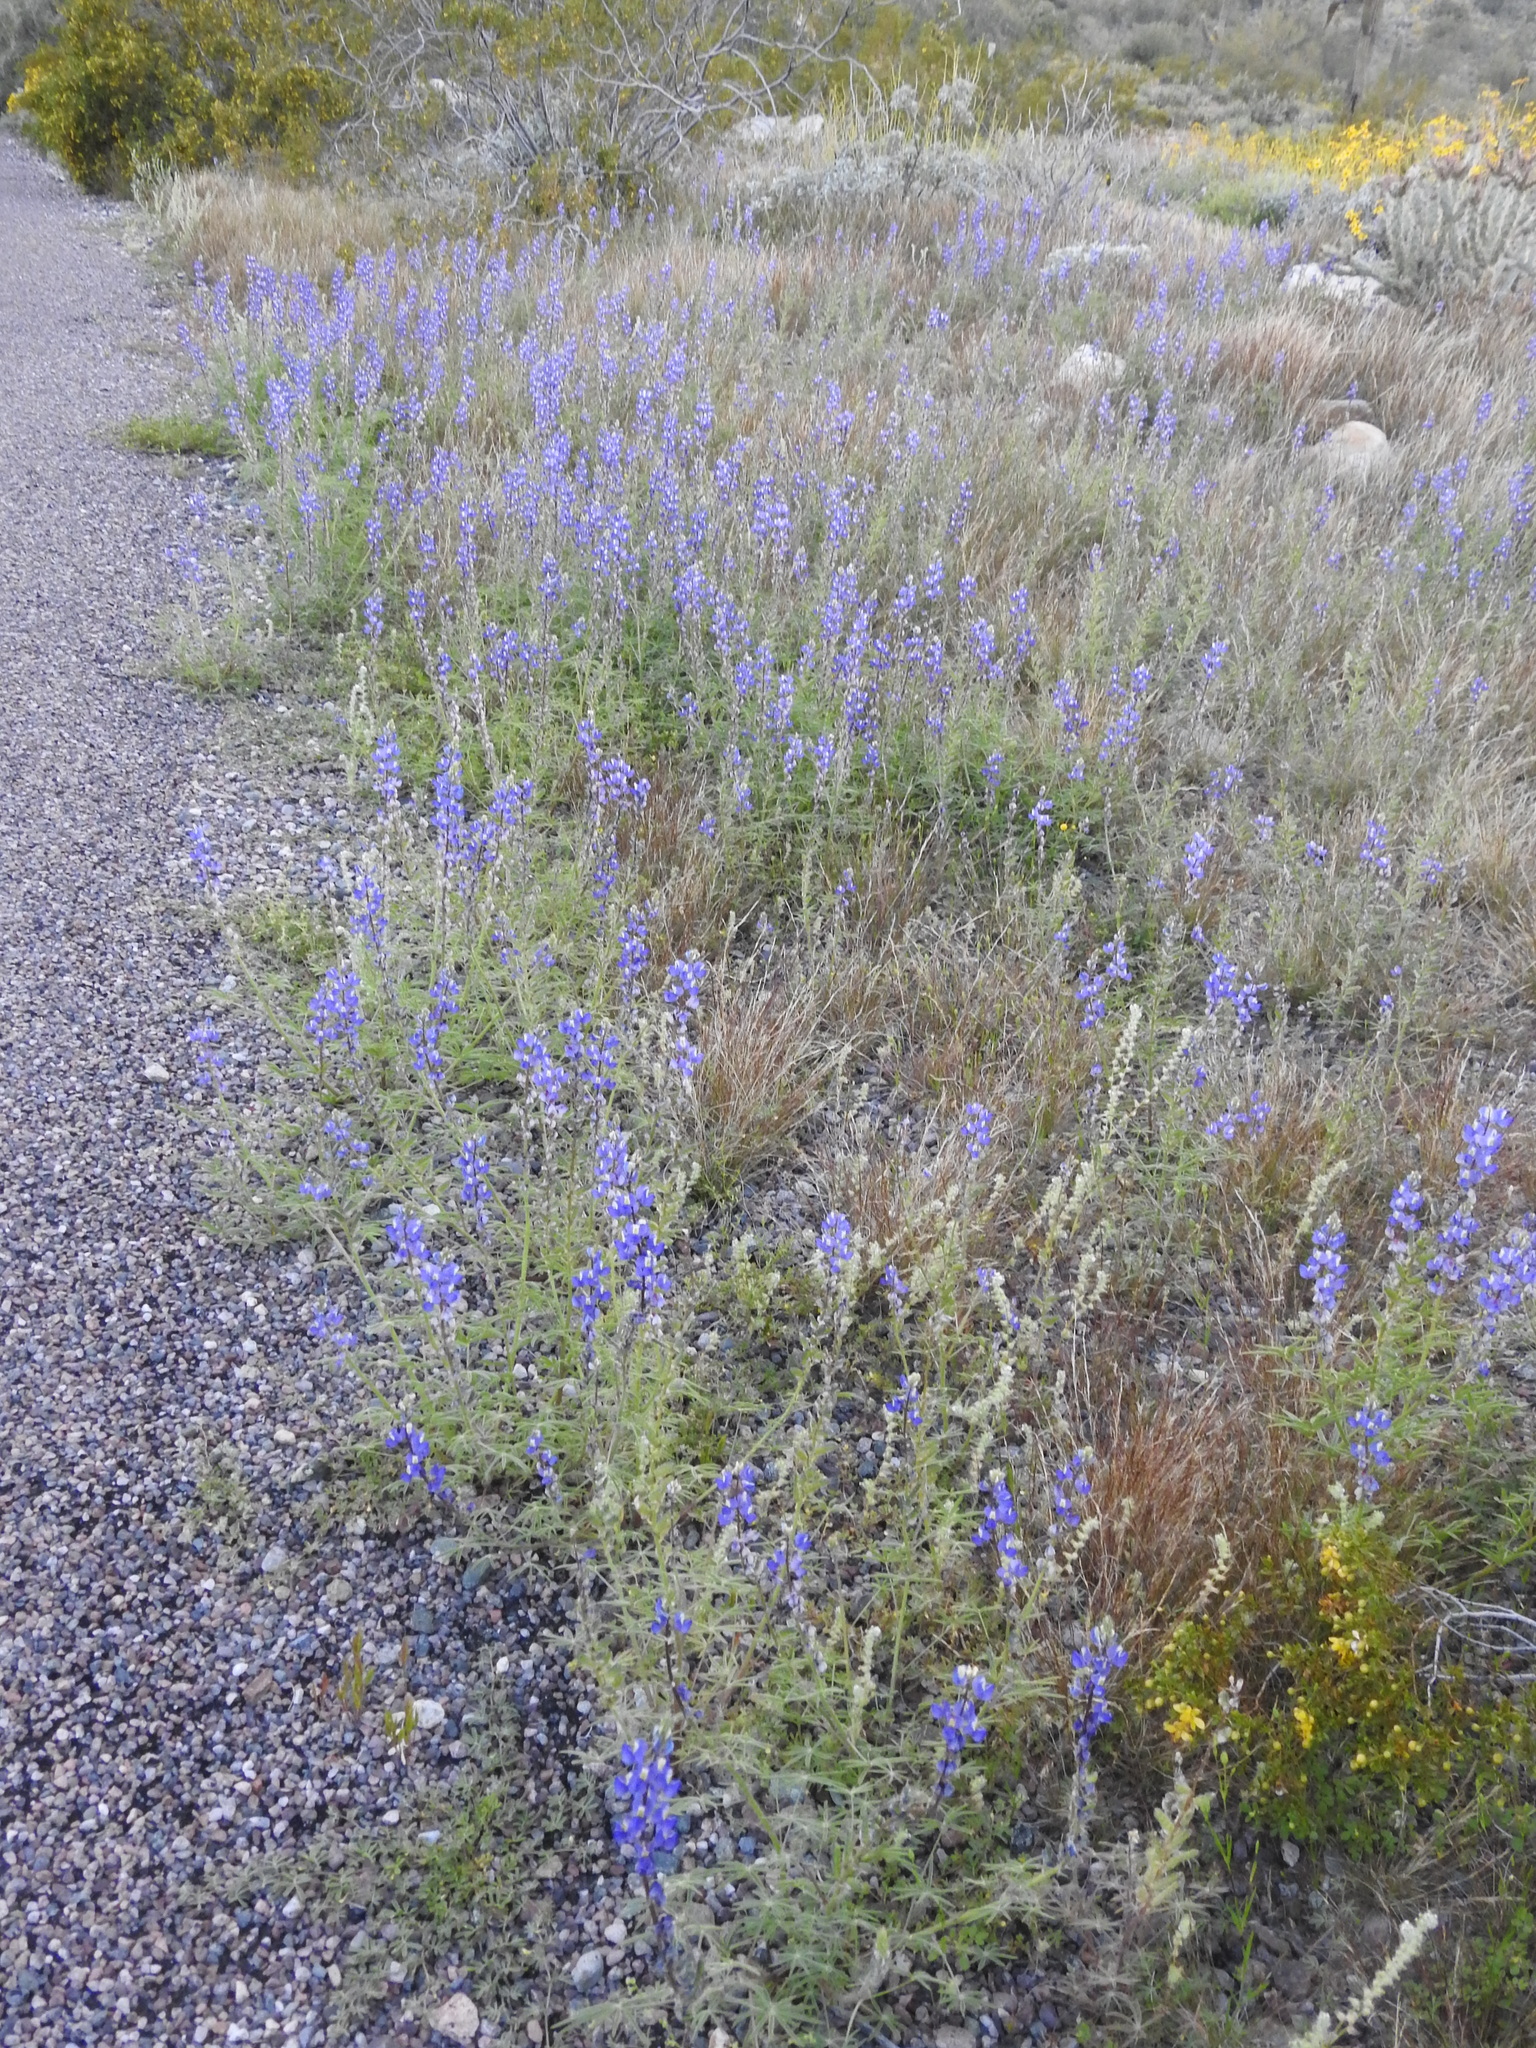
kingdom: Plantae
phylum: Tracheophyta
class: Magnoliopsida
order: Fabales
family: Fabaceae
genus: Lupinus
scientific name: Lupinus sparsiflorus
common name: Coulter's lupine
